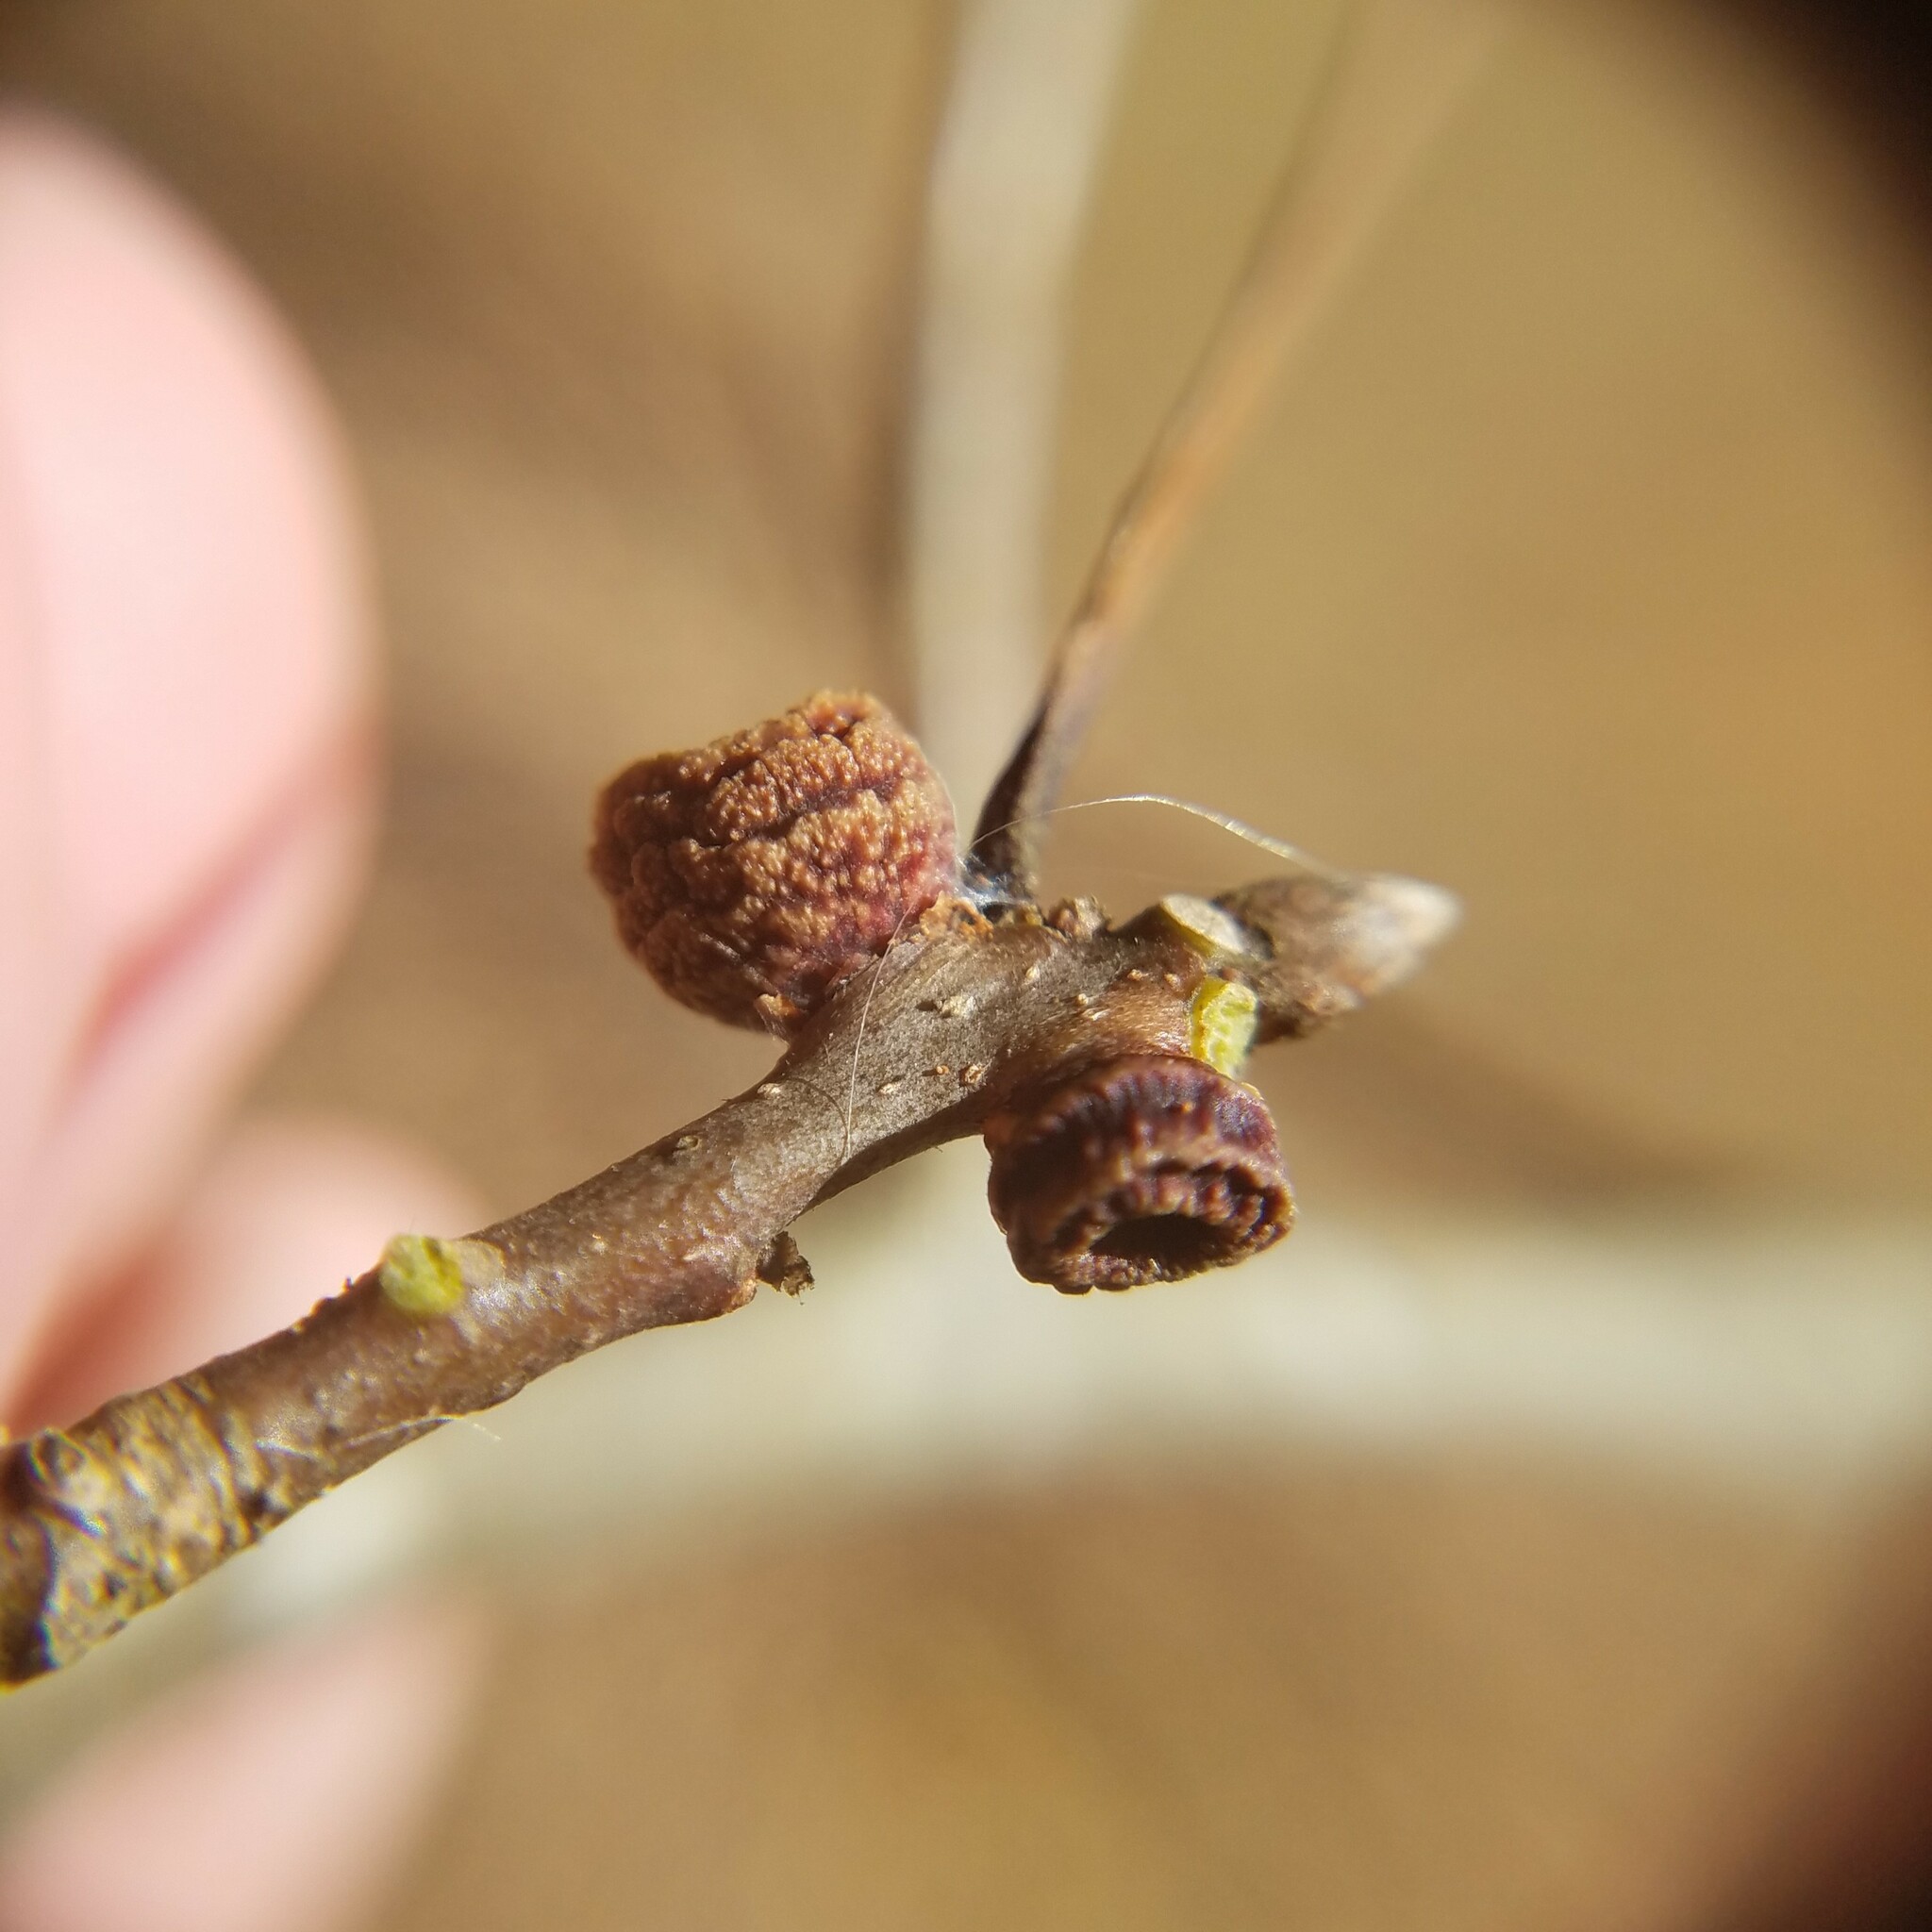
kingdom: Animalia
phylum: Arthropoda
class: Insecta
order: Hymenoptera
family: Cynipidae
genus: Kokkocynips
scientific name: Kokkocynips difficilis
